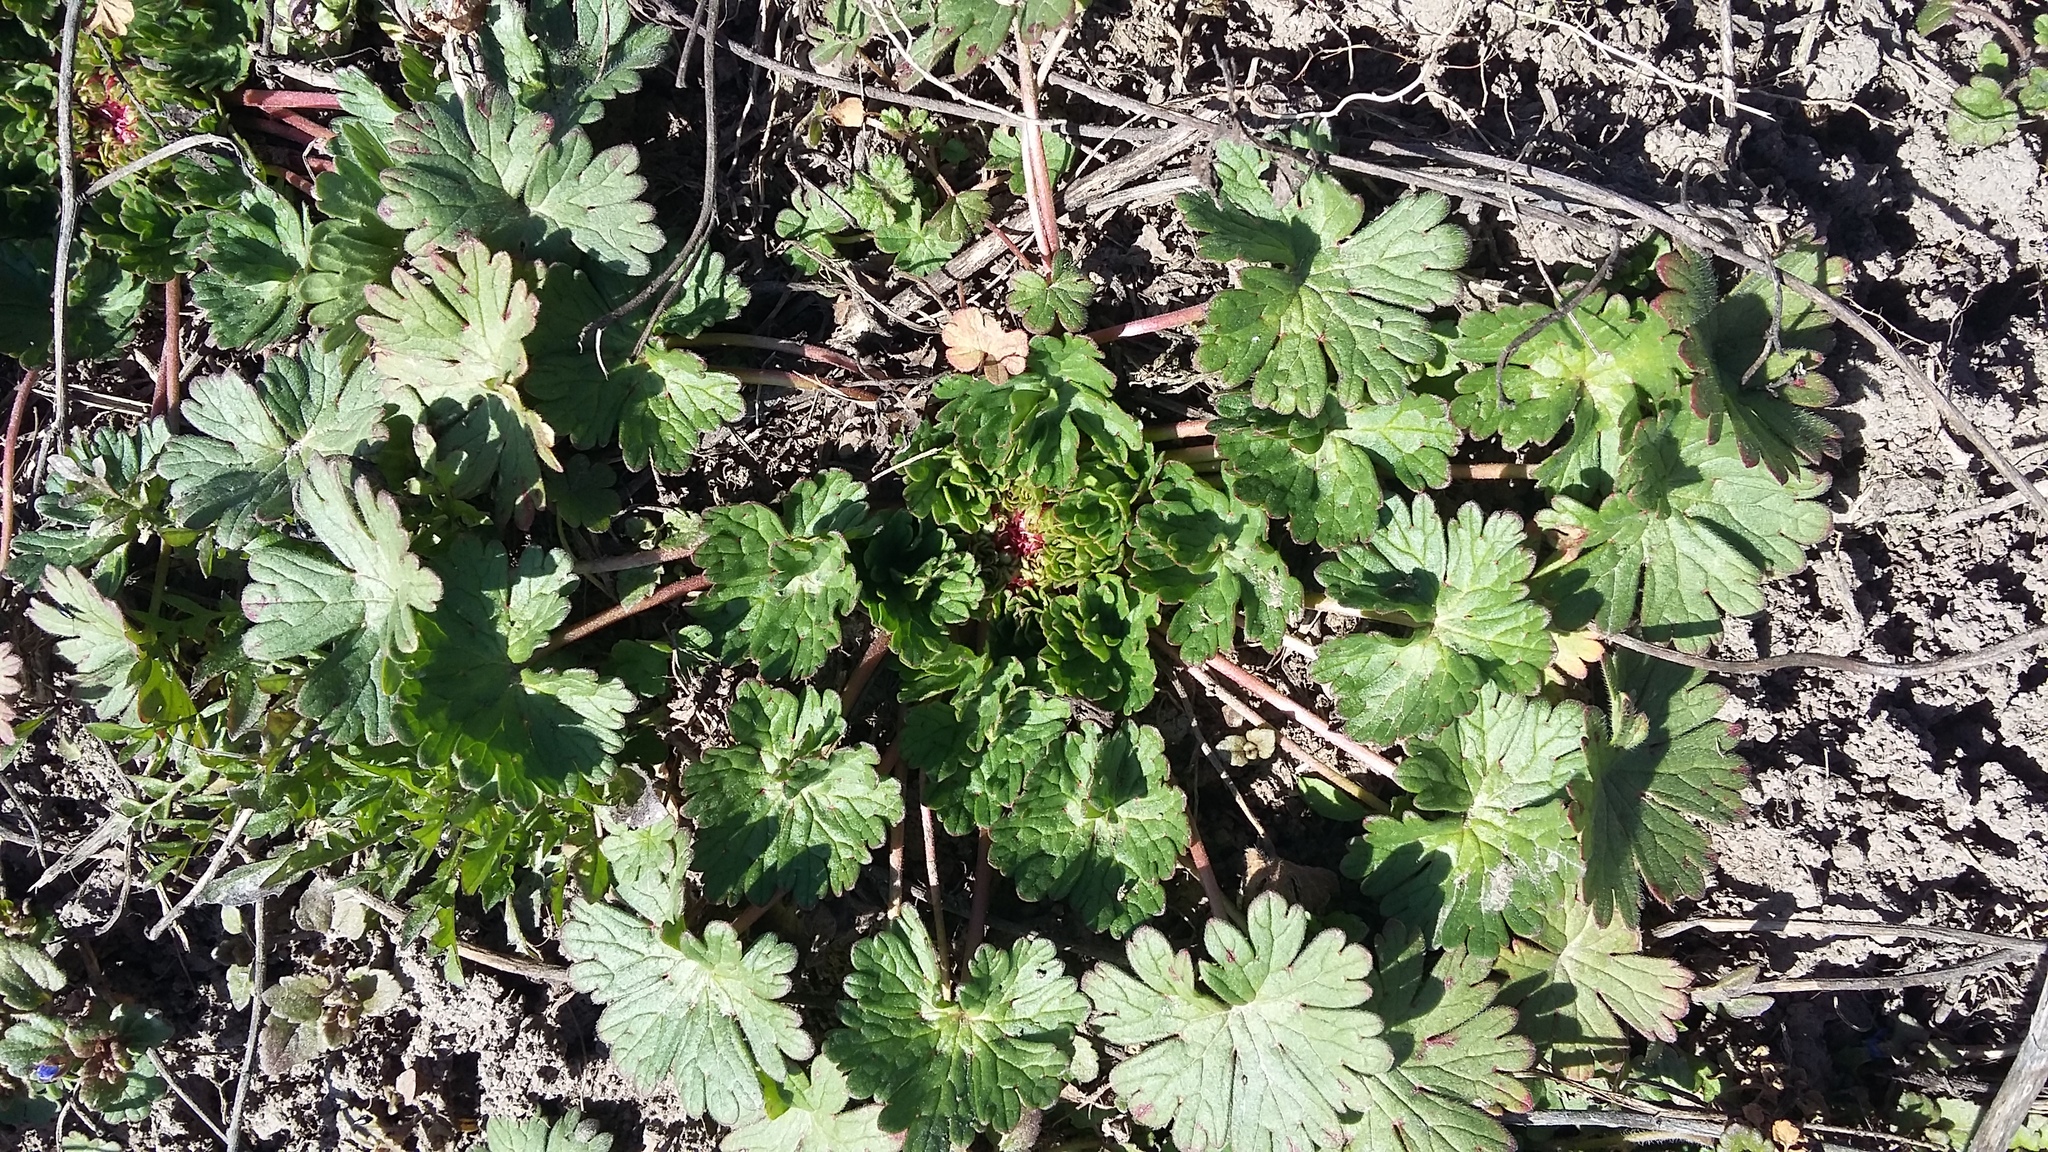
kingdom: Plantae
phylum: Tracheophyta
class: Magnoliopsida
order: Geraniales
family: Geraniaceae
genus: Geranium
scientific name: Geranium pusillum
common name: Small geranium
